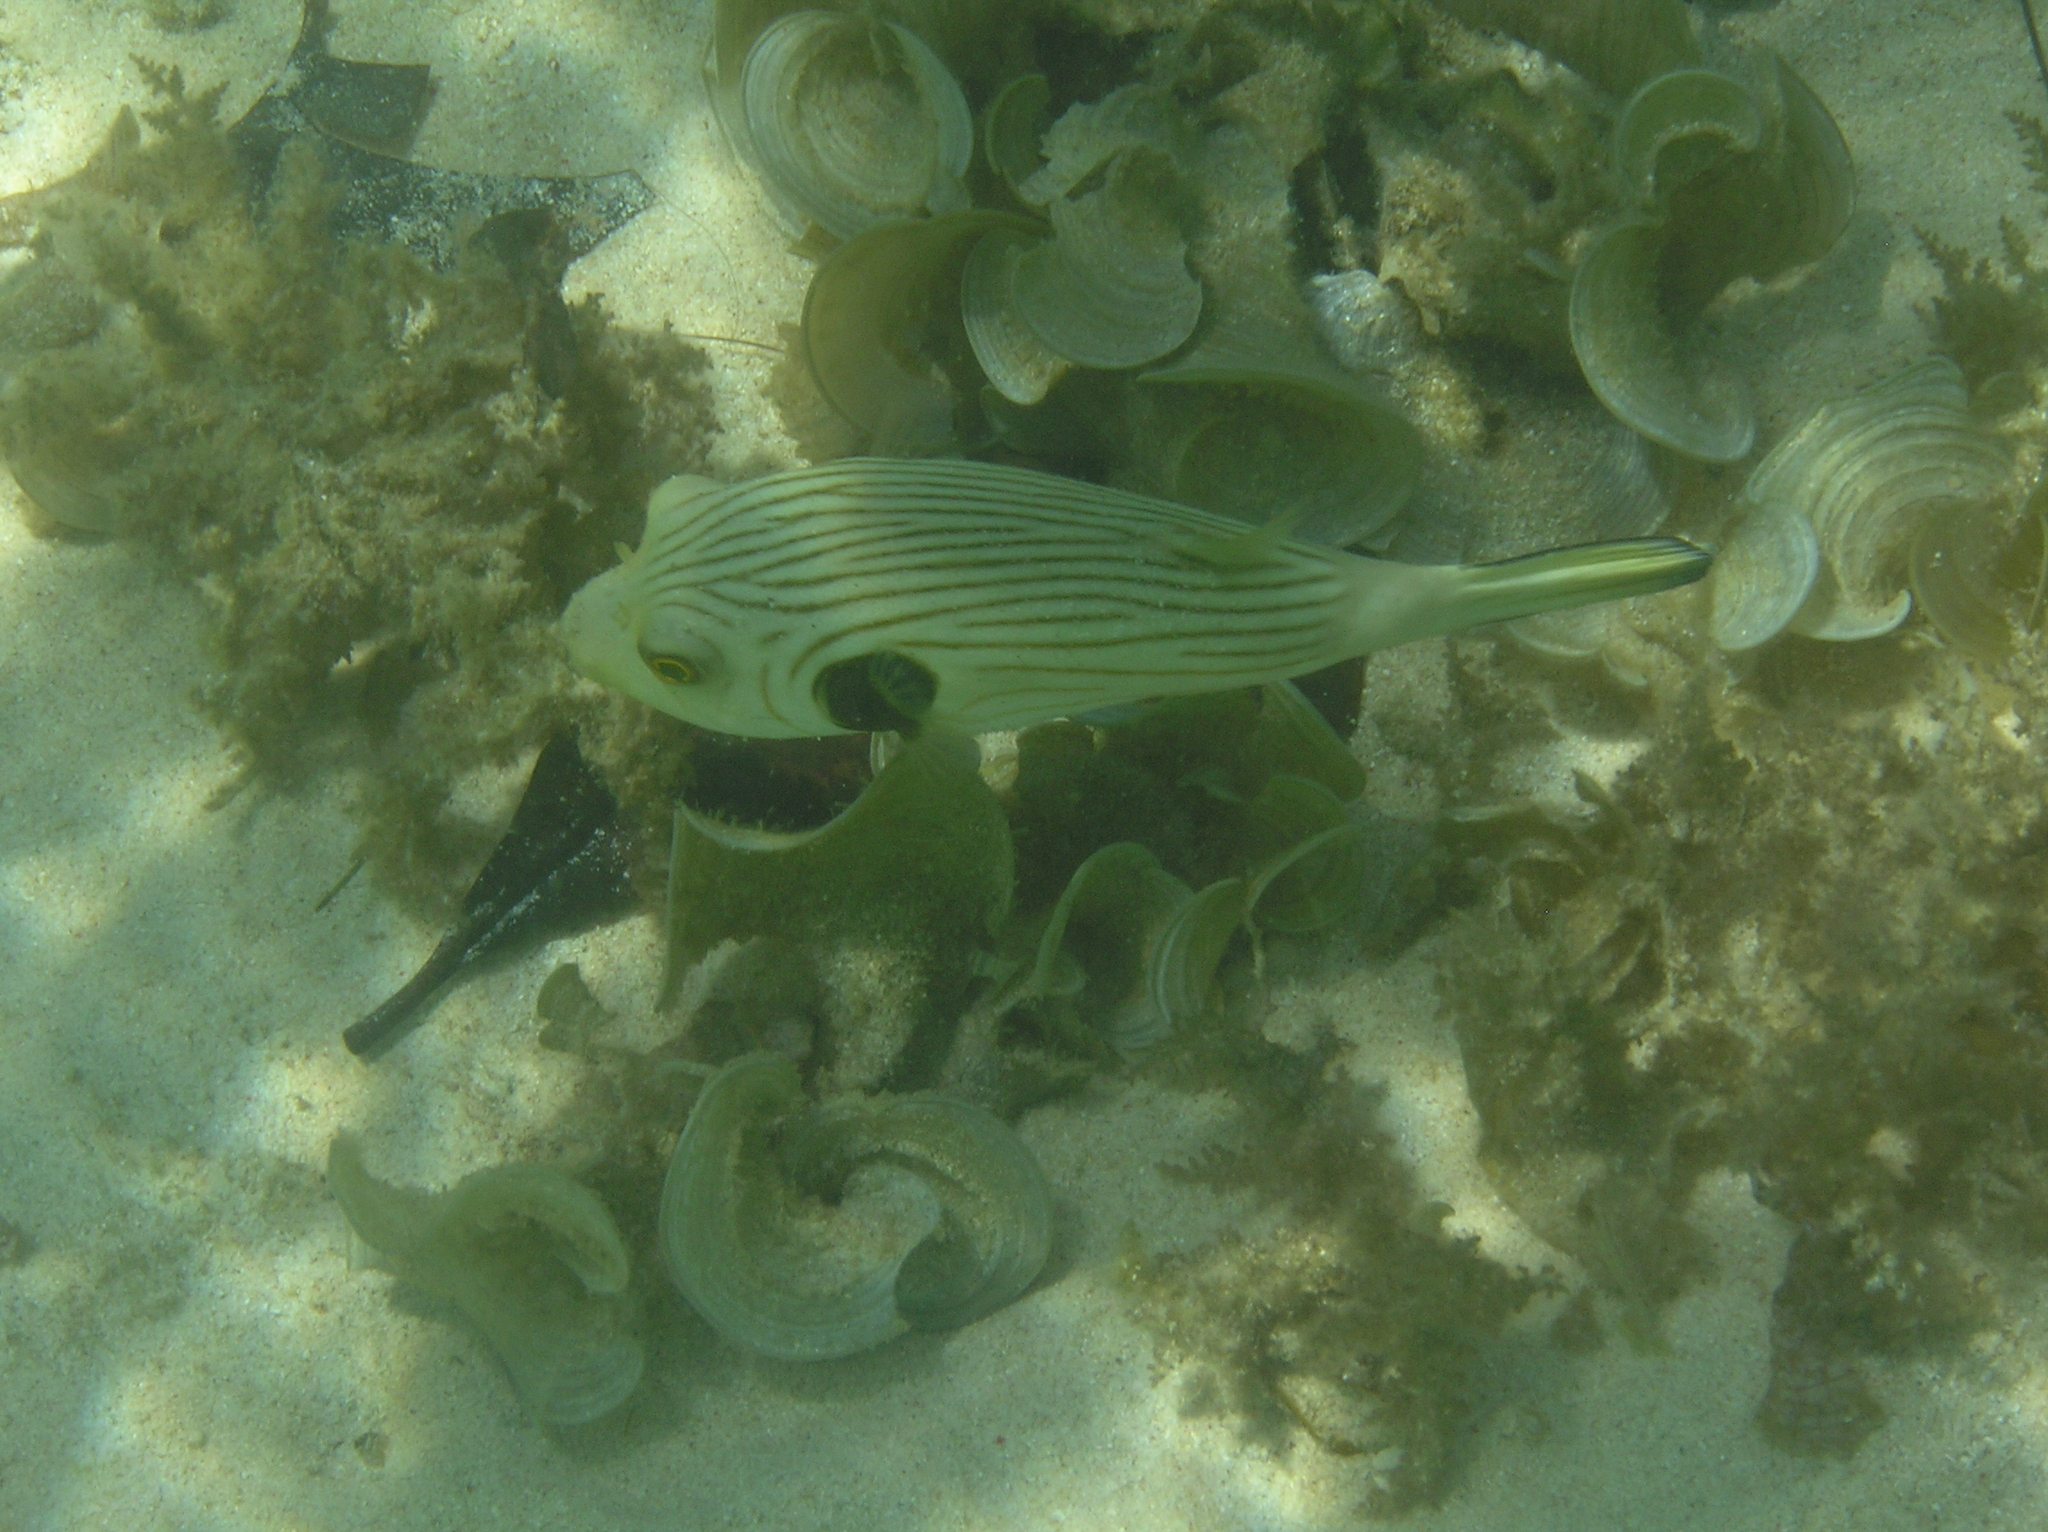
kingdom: Animalia
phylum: Chordata
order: Tetraodontiformes
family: Tetraodontidae
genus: Arothron
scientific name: Arothron manilensis
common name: Narrow-lined puffer
